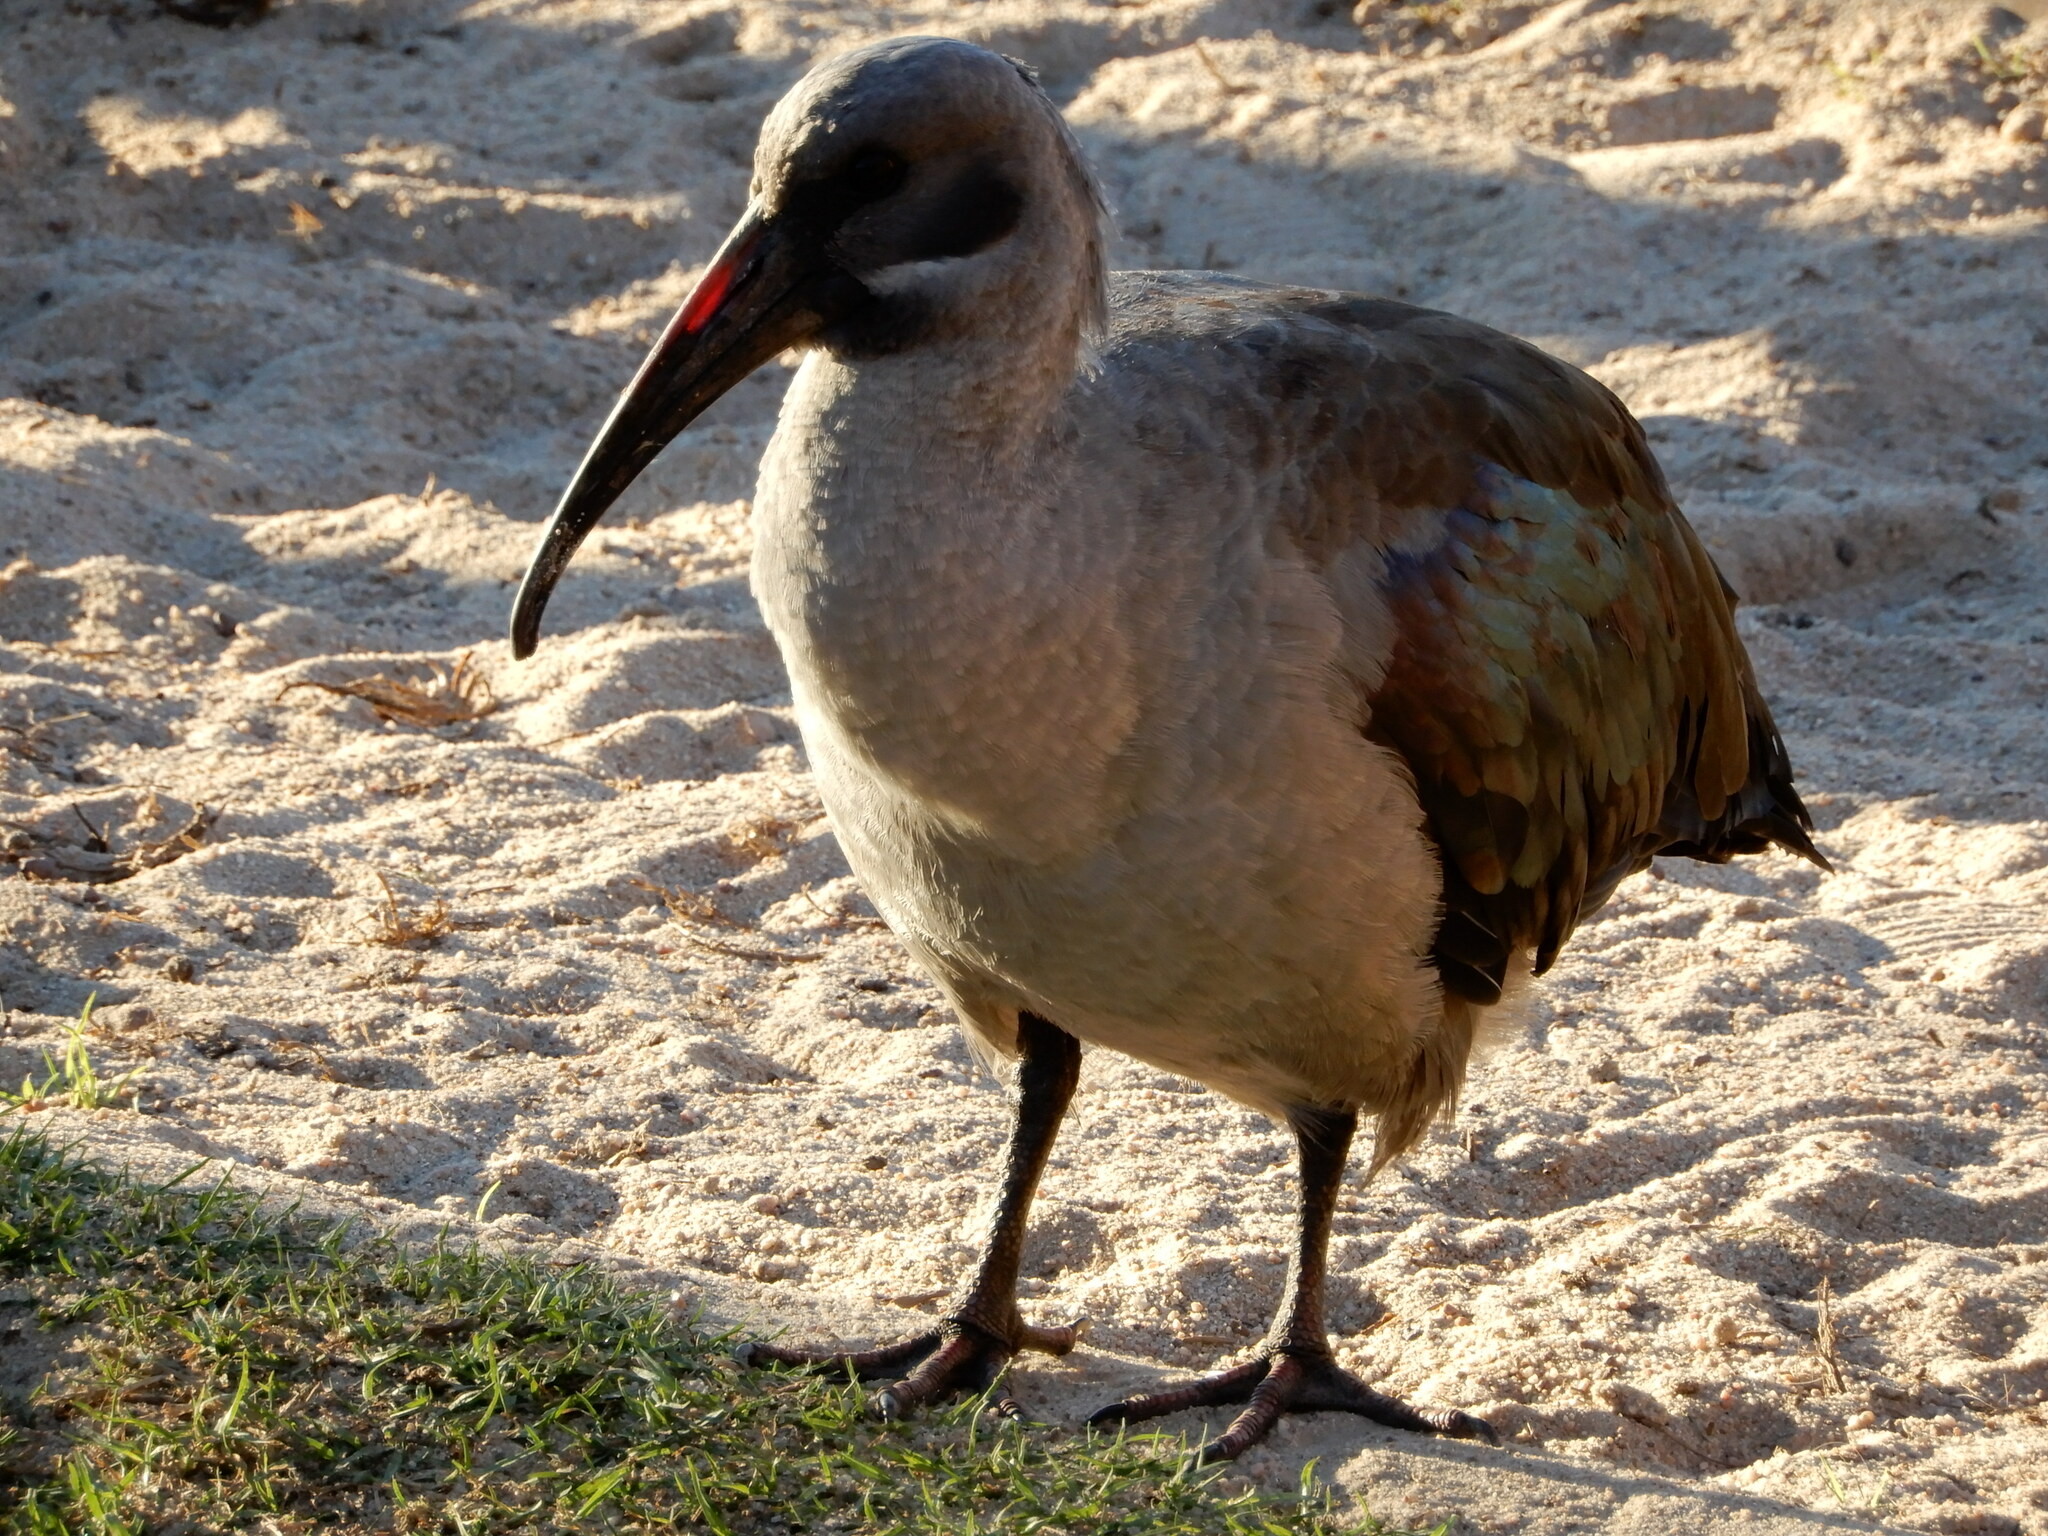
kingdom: Animalia
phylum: Chordata
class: Aves
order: Pelecaniformes
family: Threskiornithidae
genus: Bostrychia
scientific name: Bostrychia hagedash
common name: Hadada ibis
